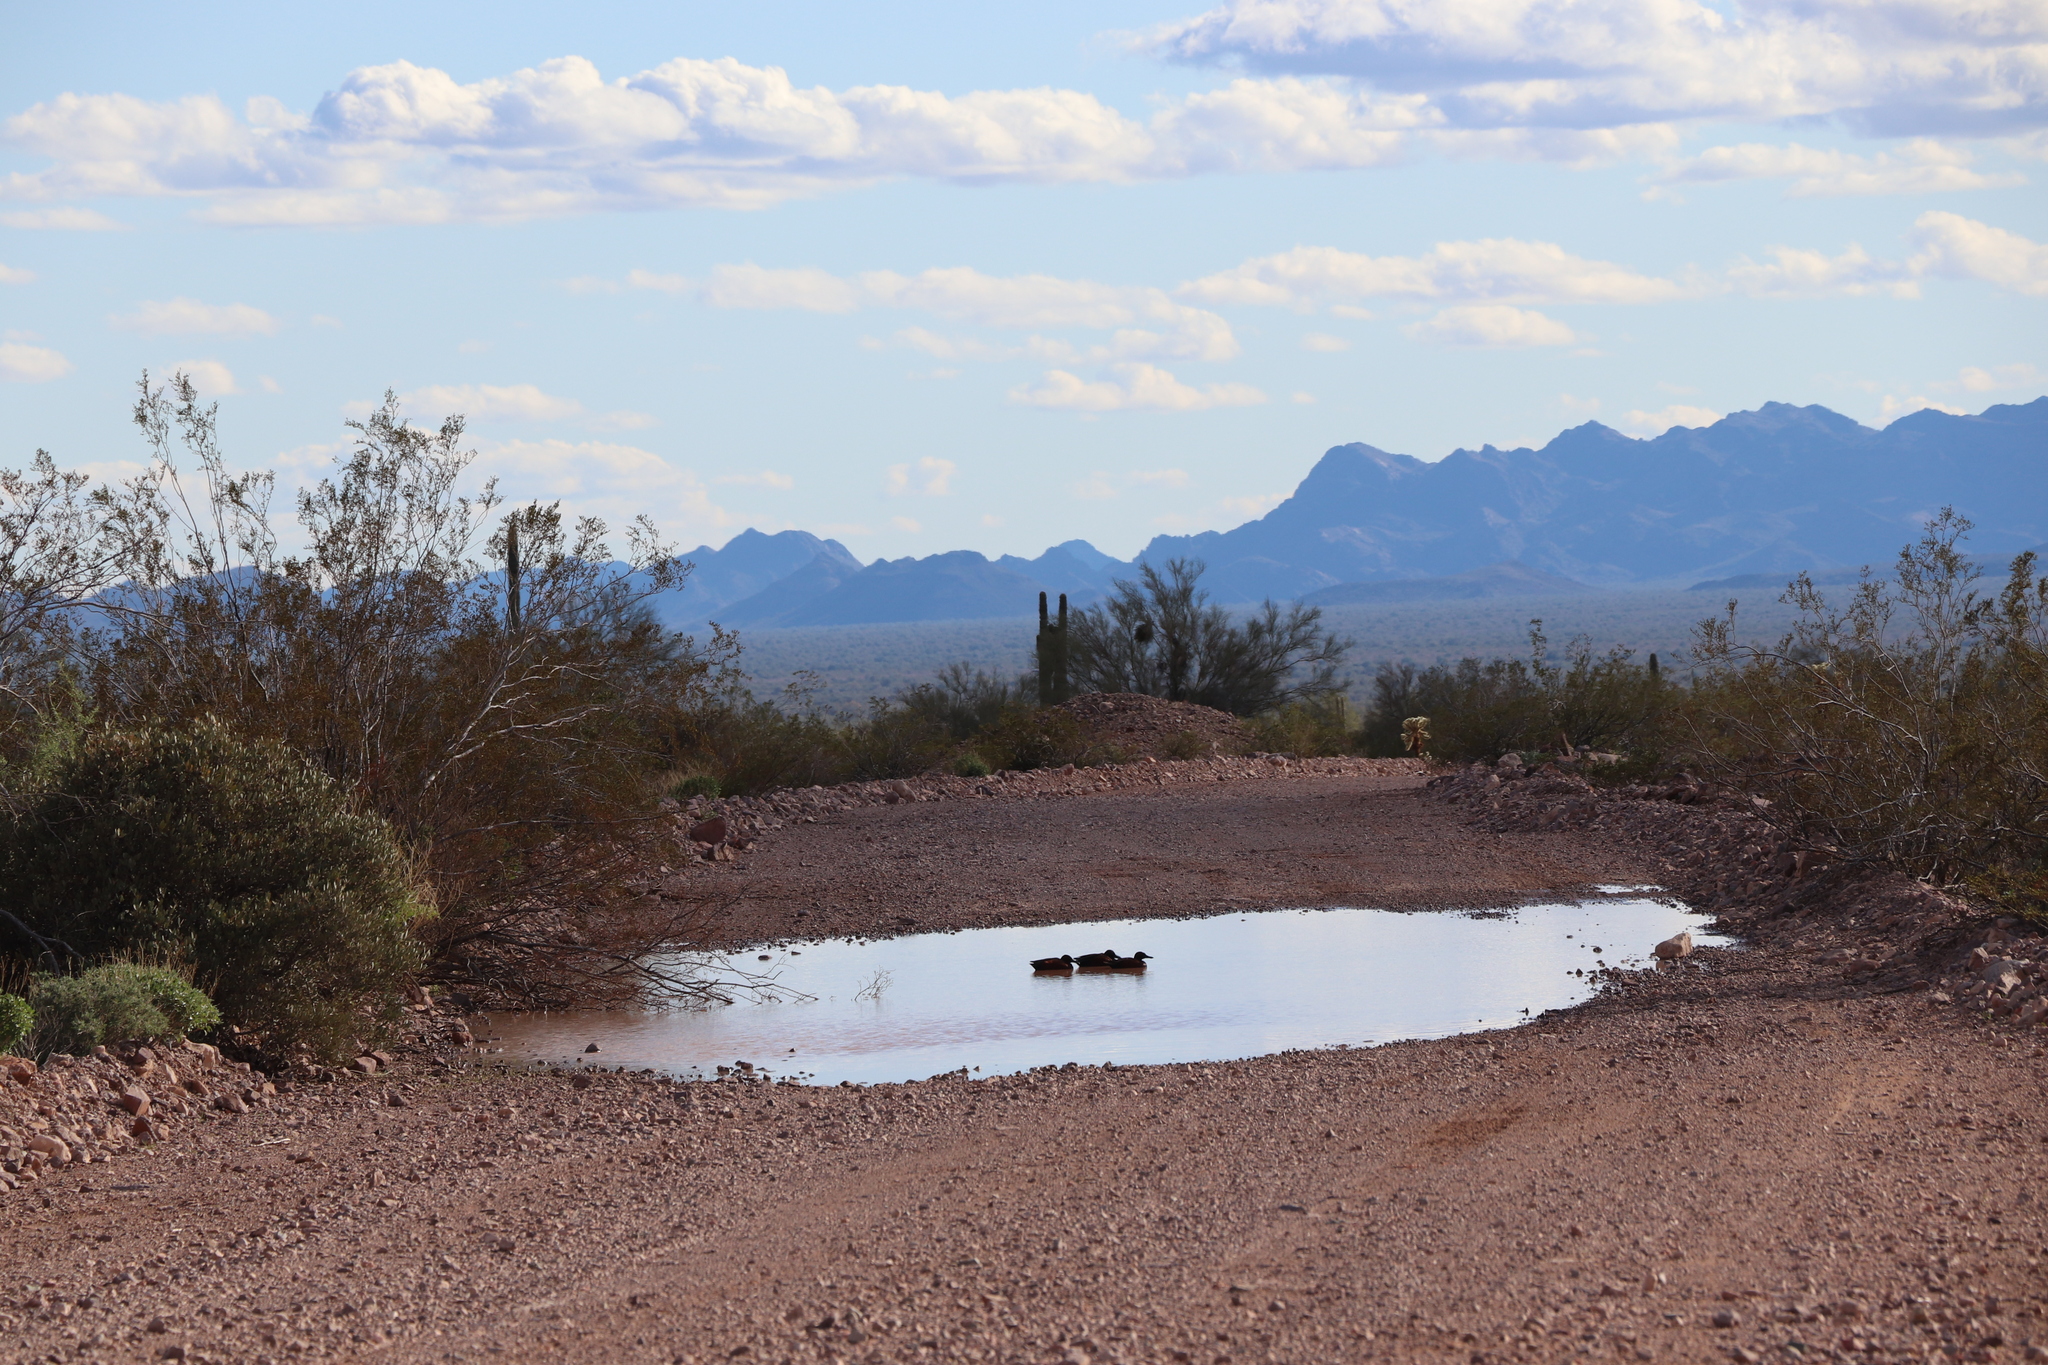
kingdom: Animalia
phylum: Chordata
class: Aves
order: Anseriformes
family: Anatidae
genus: Spatula
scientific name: Spatula cyanoptera
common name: Cinnamon teal
